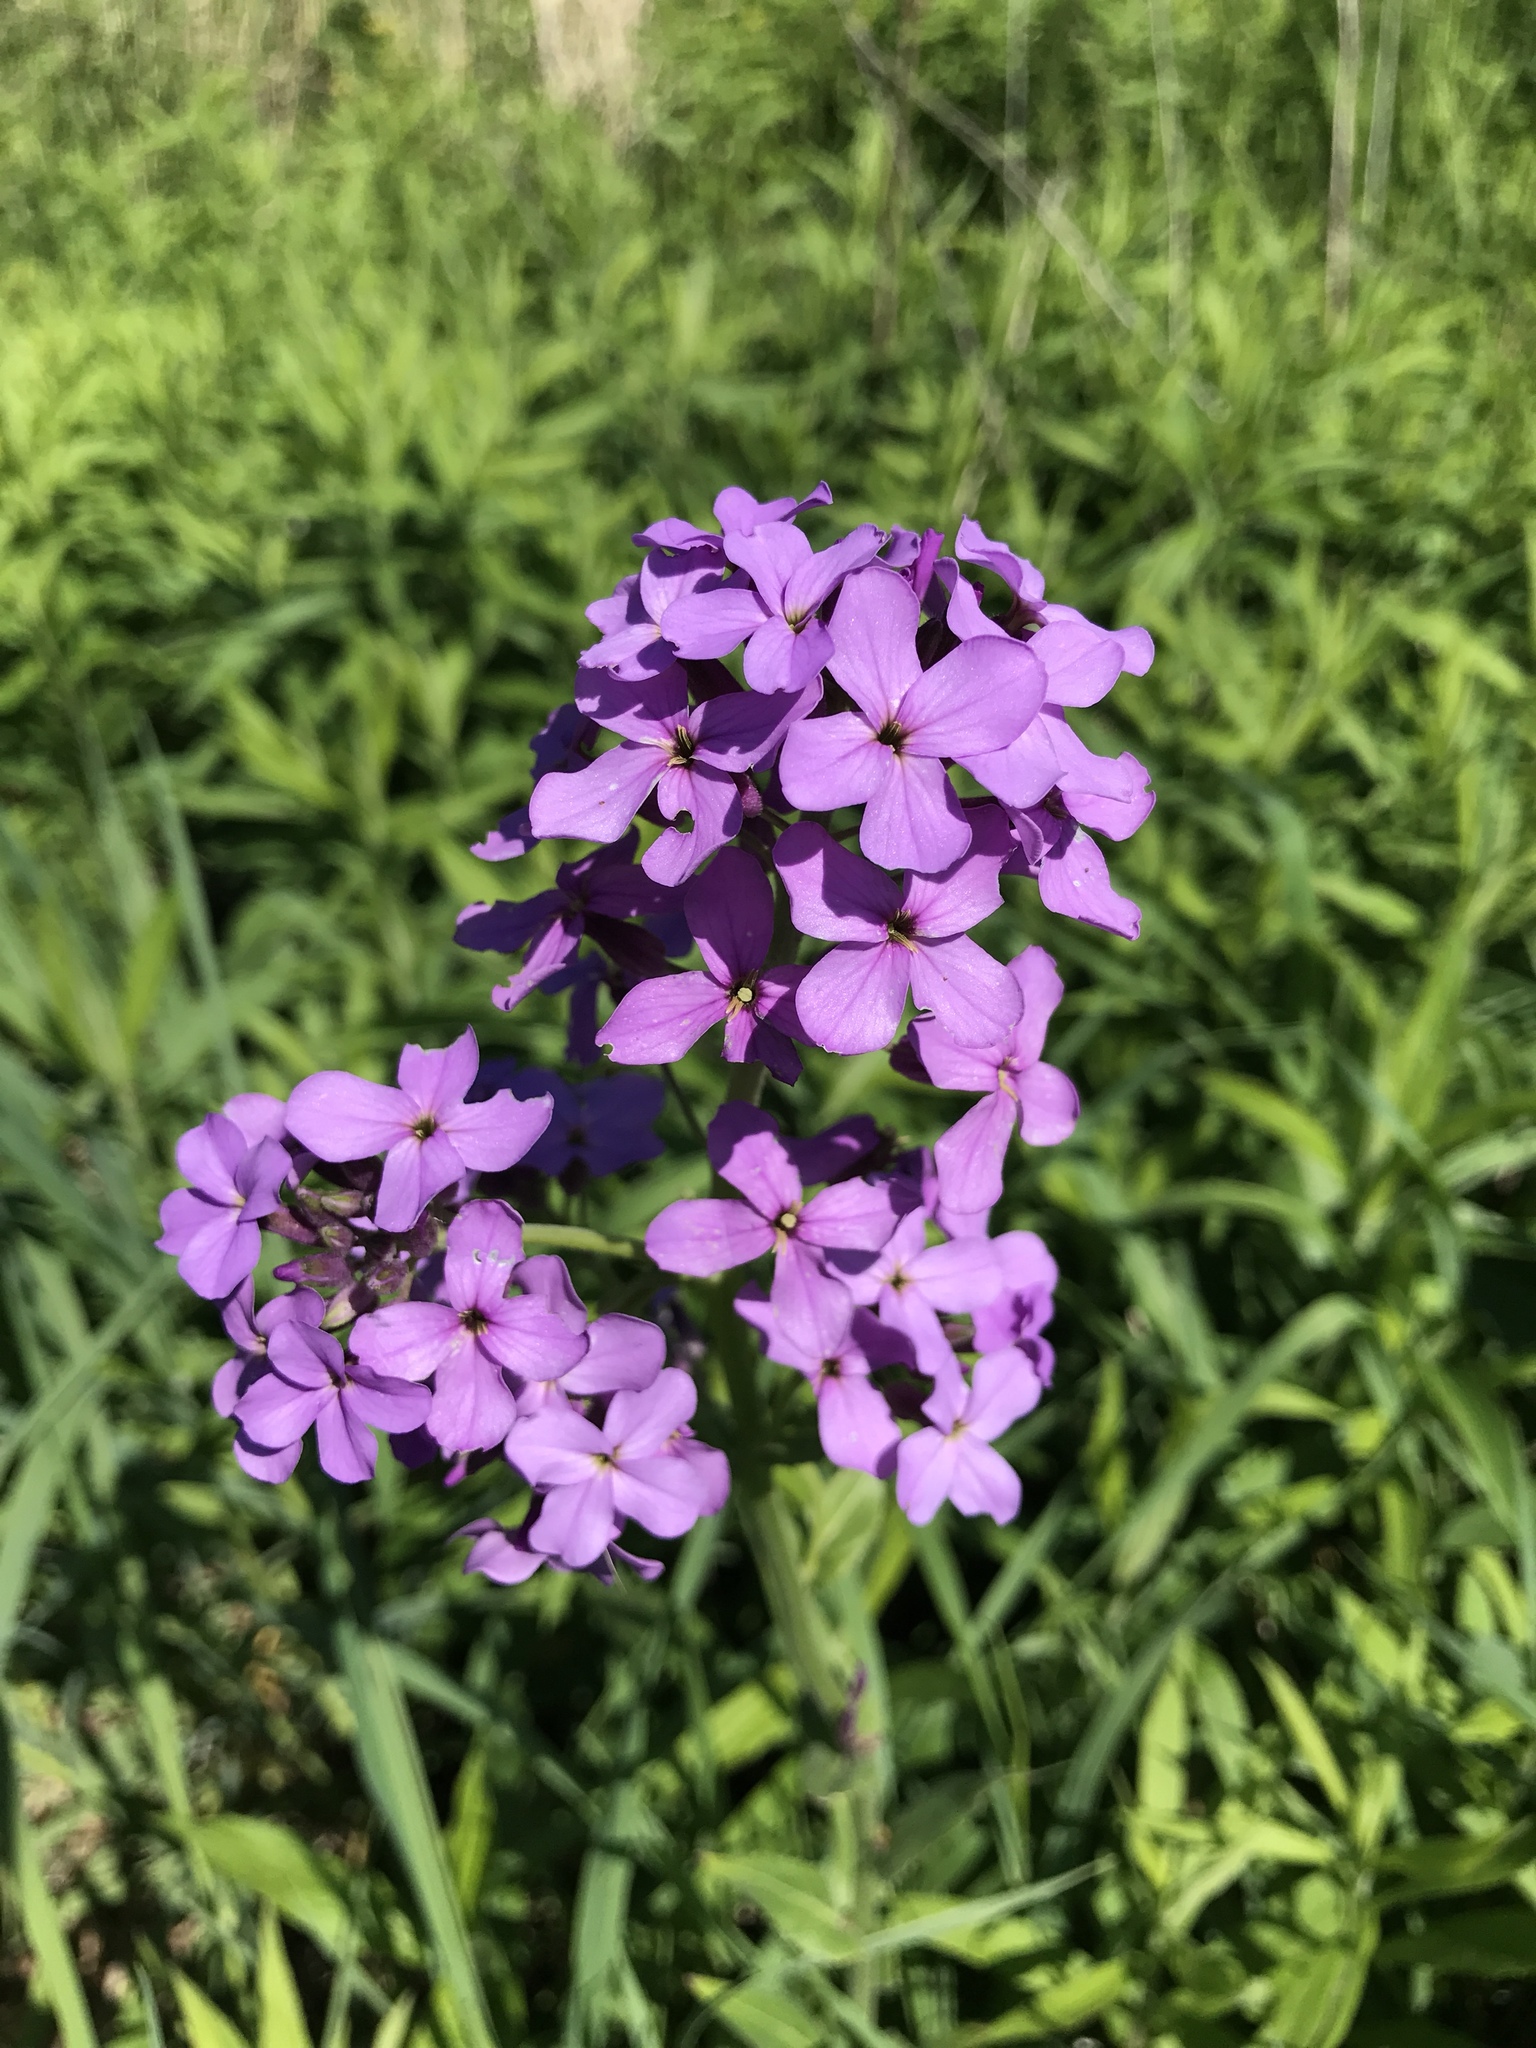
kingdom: Plantae
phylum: Tracheophyta
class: Magnoliopsida
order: Brassicales
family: Brassicaceae
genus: Hesperis
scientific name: Hesperis matronalis
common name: Dame's-violet
